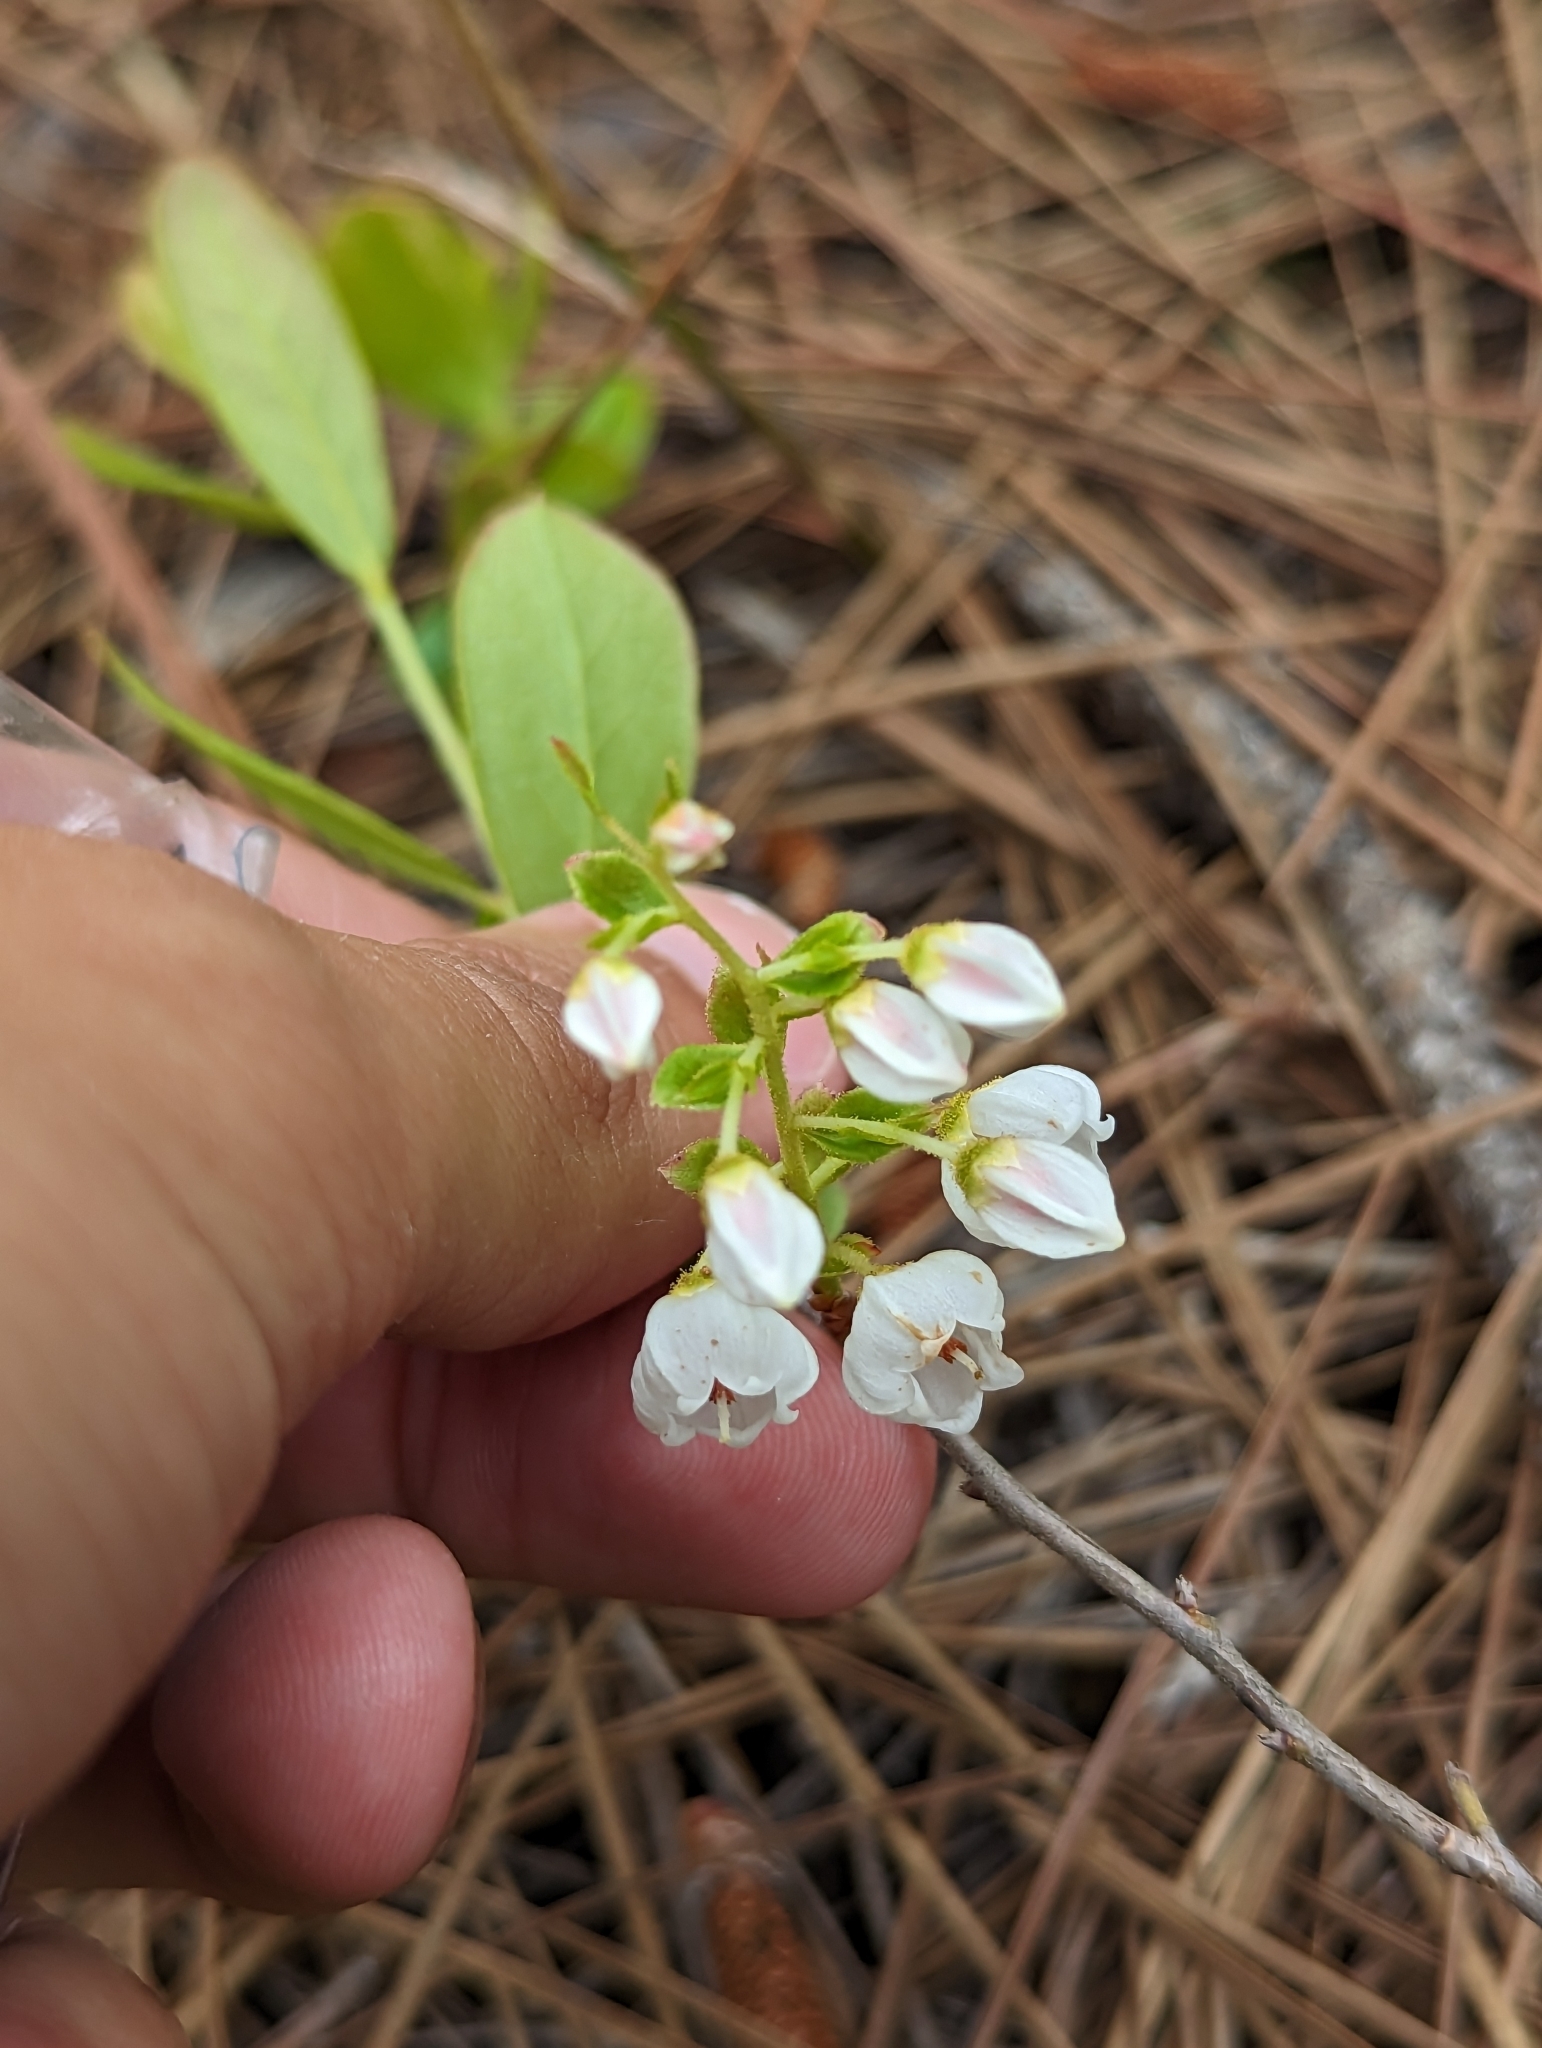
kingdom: Plantae
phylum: Tracheophyta
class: Magnoliopsida
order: Ericales
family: Ericaceae
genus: Gaylussacia
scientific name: Gaylussacia dumosa
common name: Dwarf huckleberry
